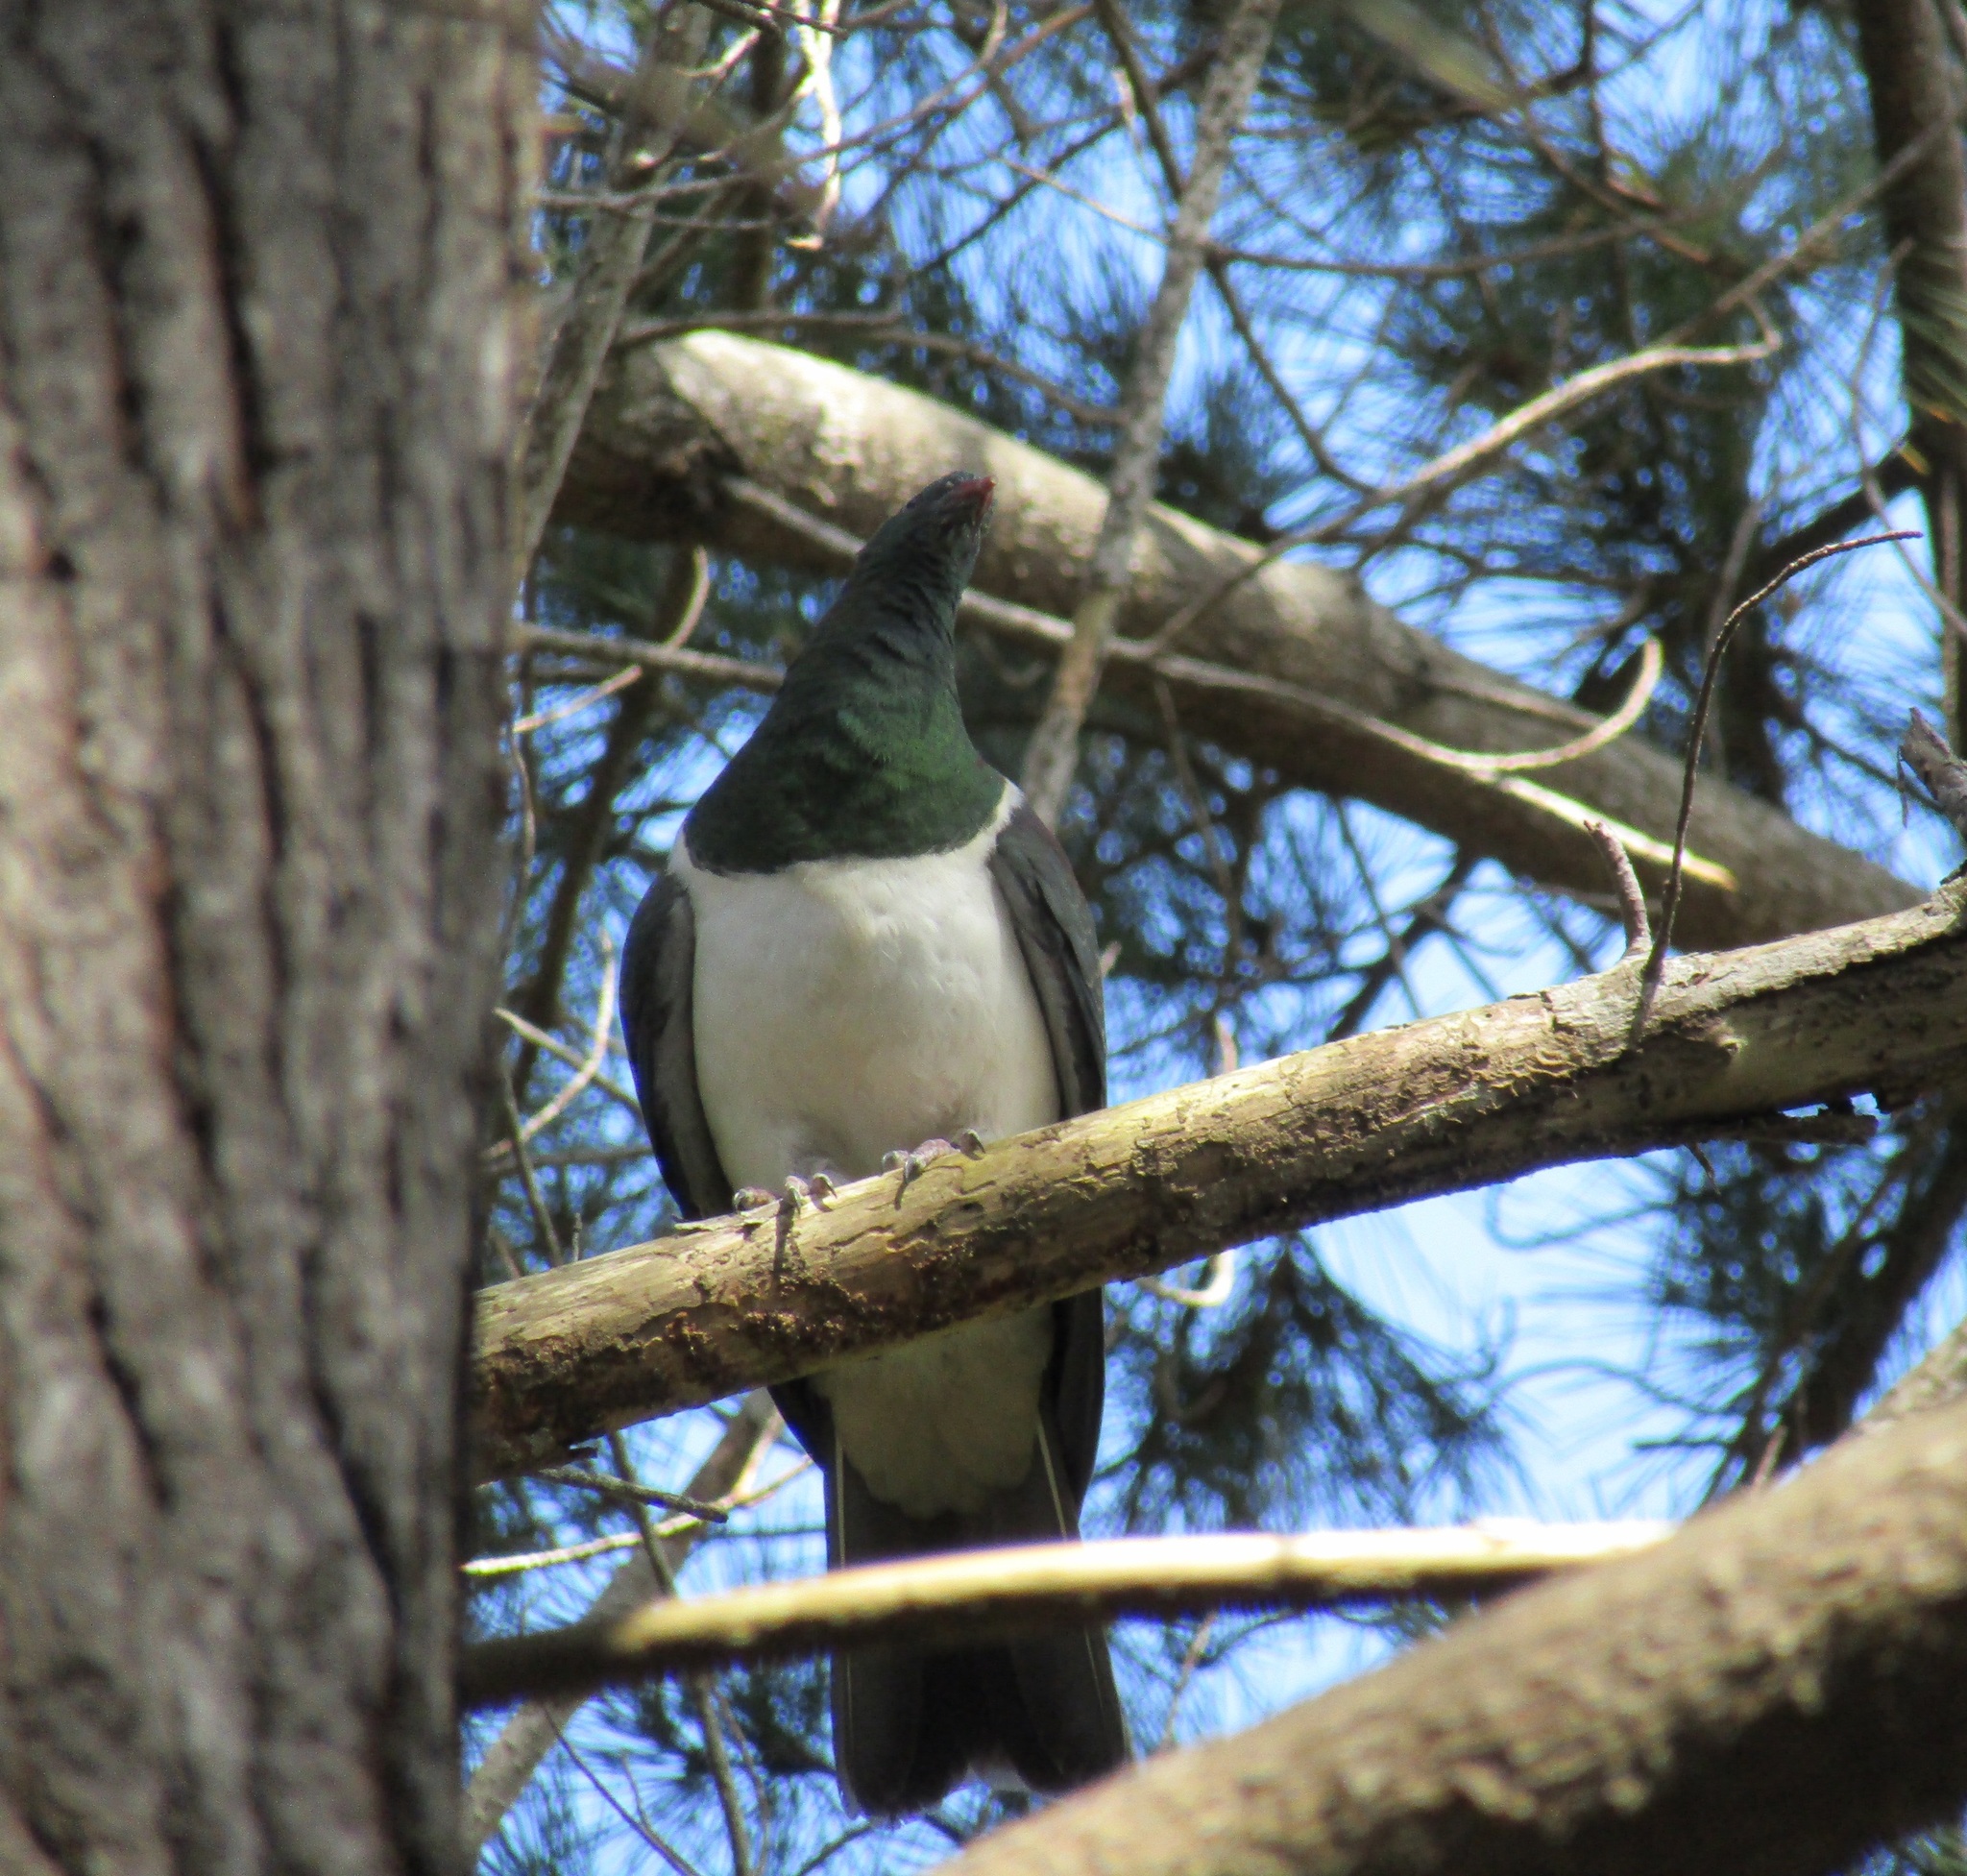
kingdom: Animalia
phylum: Chordata
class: Aves
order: Columbiformes
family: Columbidae
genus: Hemiphaga
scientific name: Hemiphaga novaeseelandiae
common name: New zealand pigeon
